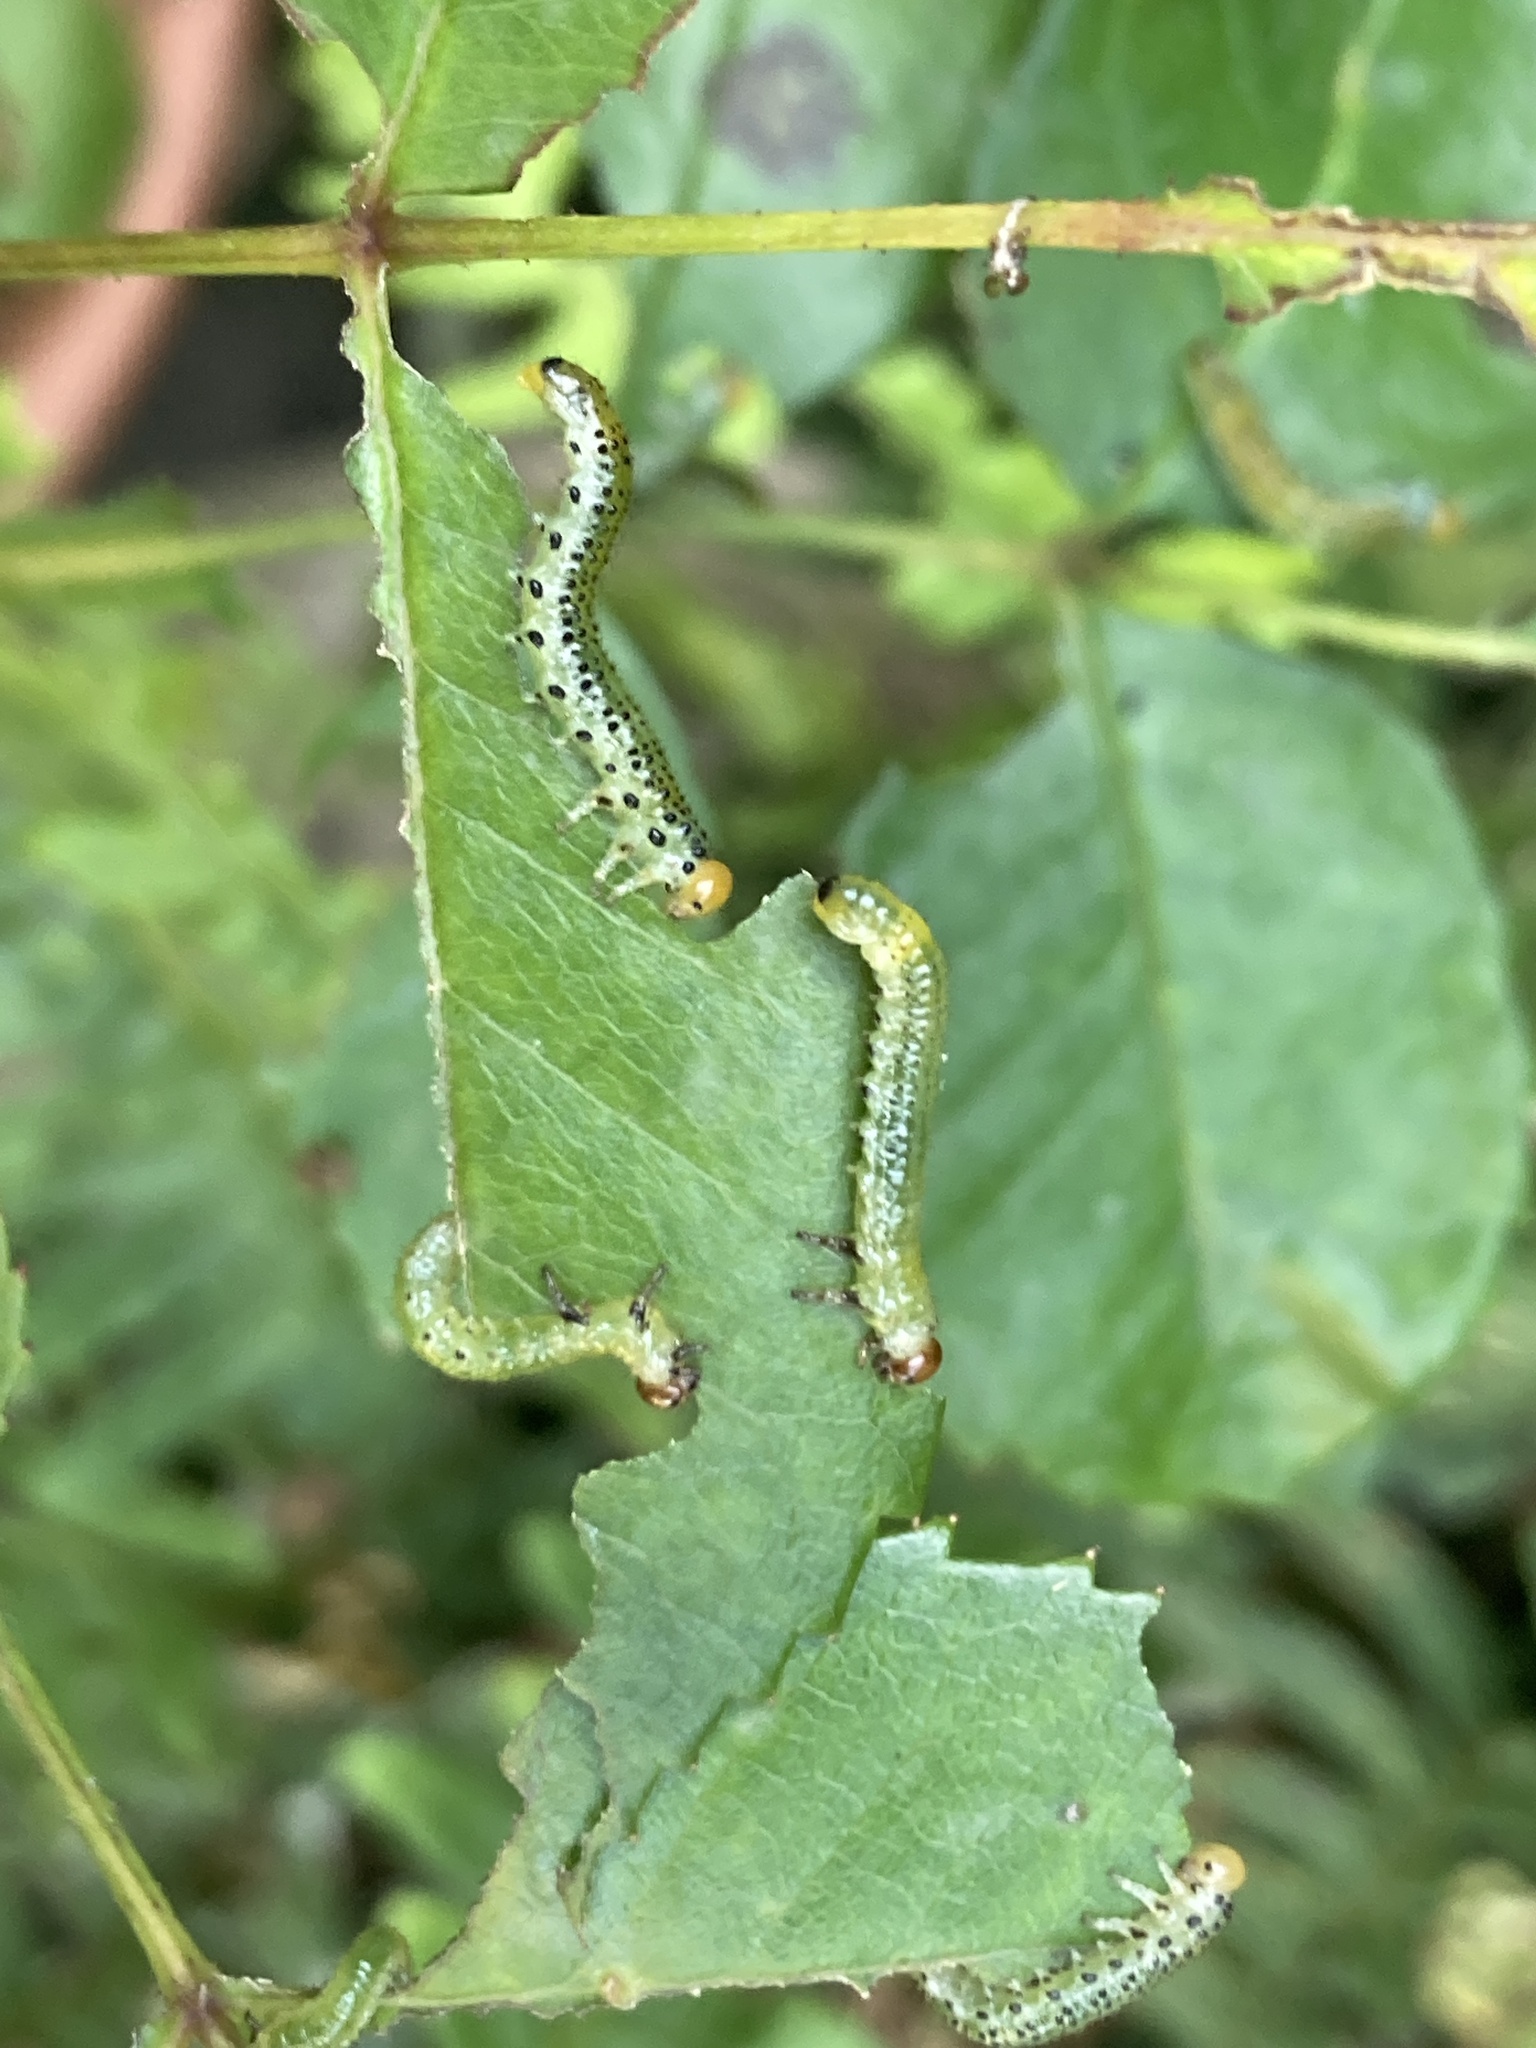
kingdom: Animalia
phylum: Arthropoda
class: Insecta
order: Hymenoptera
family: Argidae
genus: Arge
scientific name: Arge pagana
